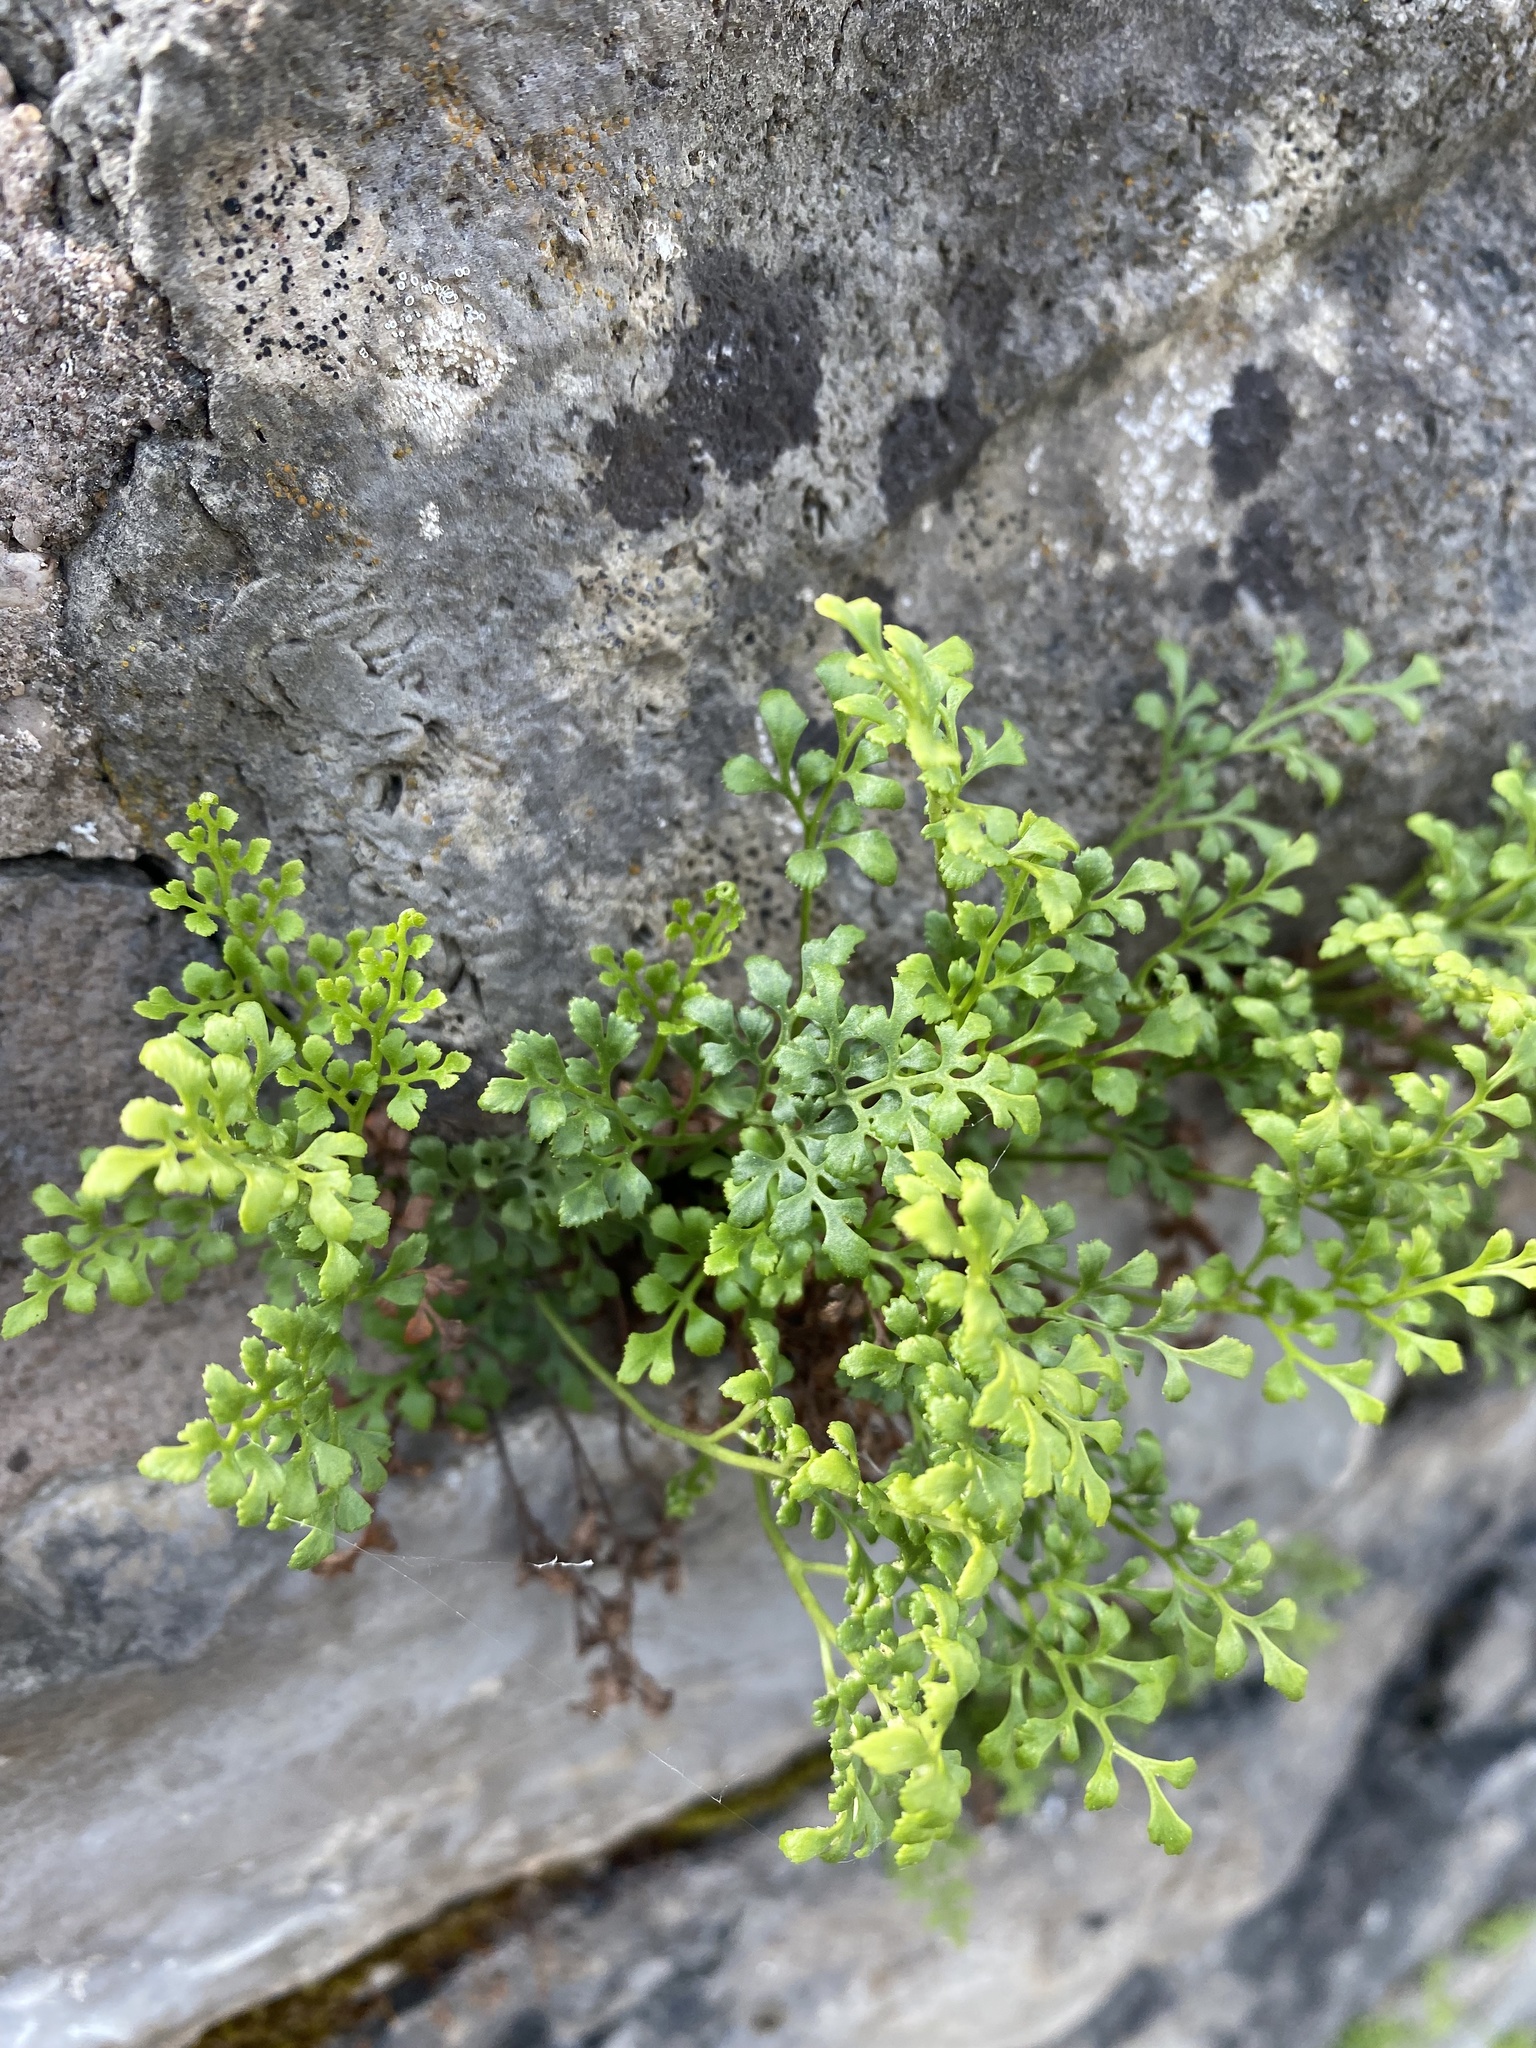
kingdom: Plantae
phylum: Tracheophyta
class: Polypodiopsida
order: Polypodiales
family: Aspleniaceae
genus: Asplenium
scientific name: Asplenium ruta-muraria
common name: Wall-rue
